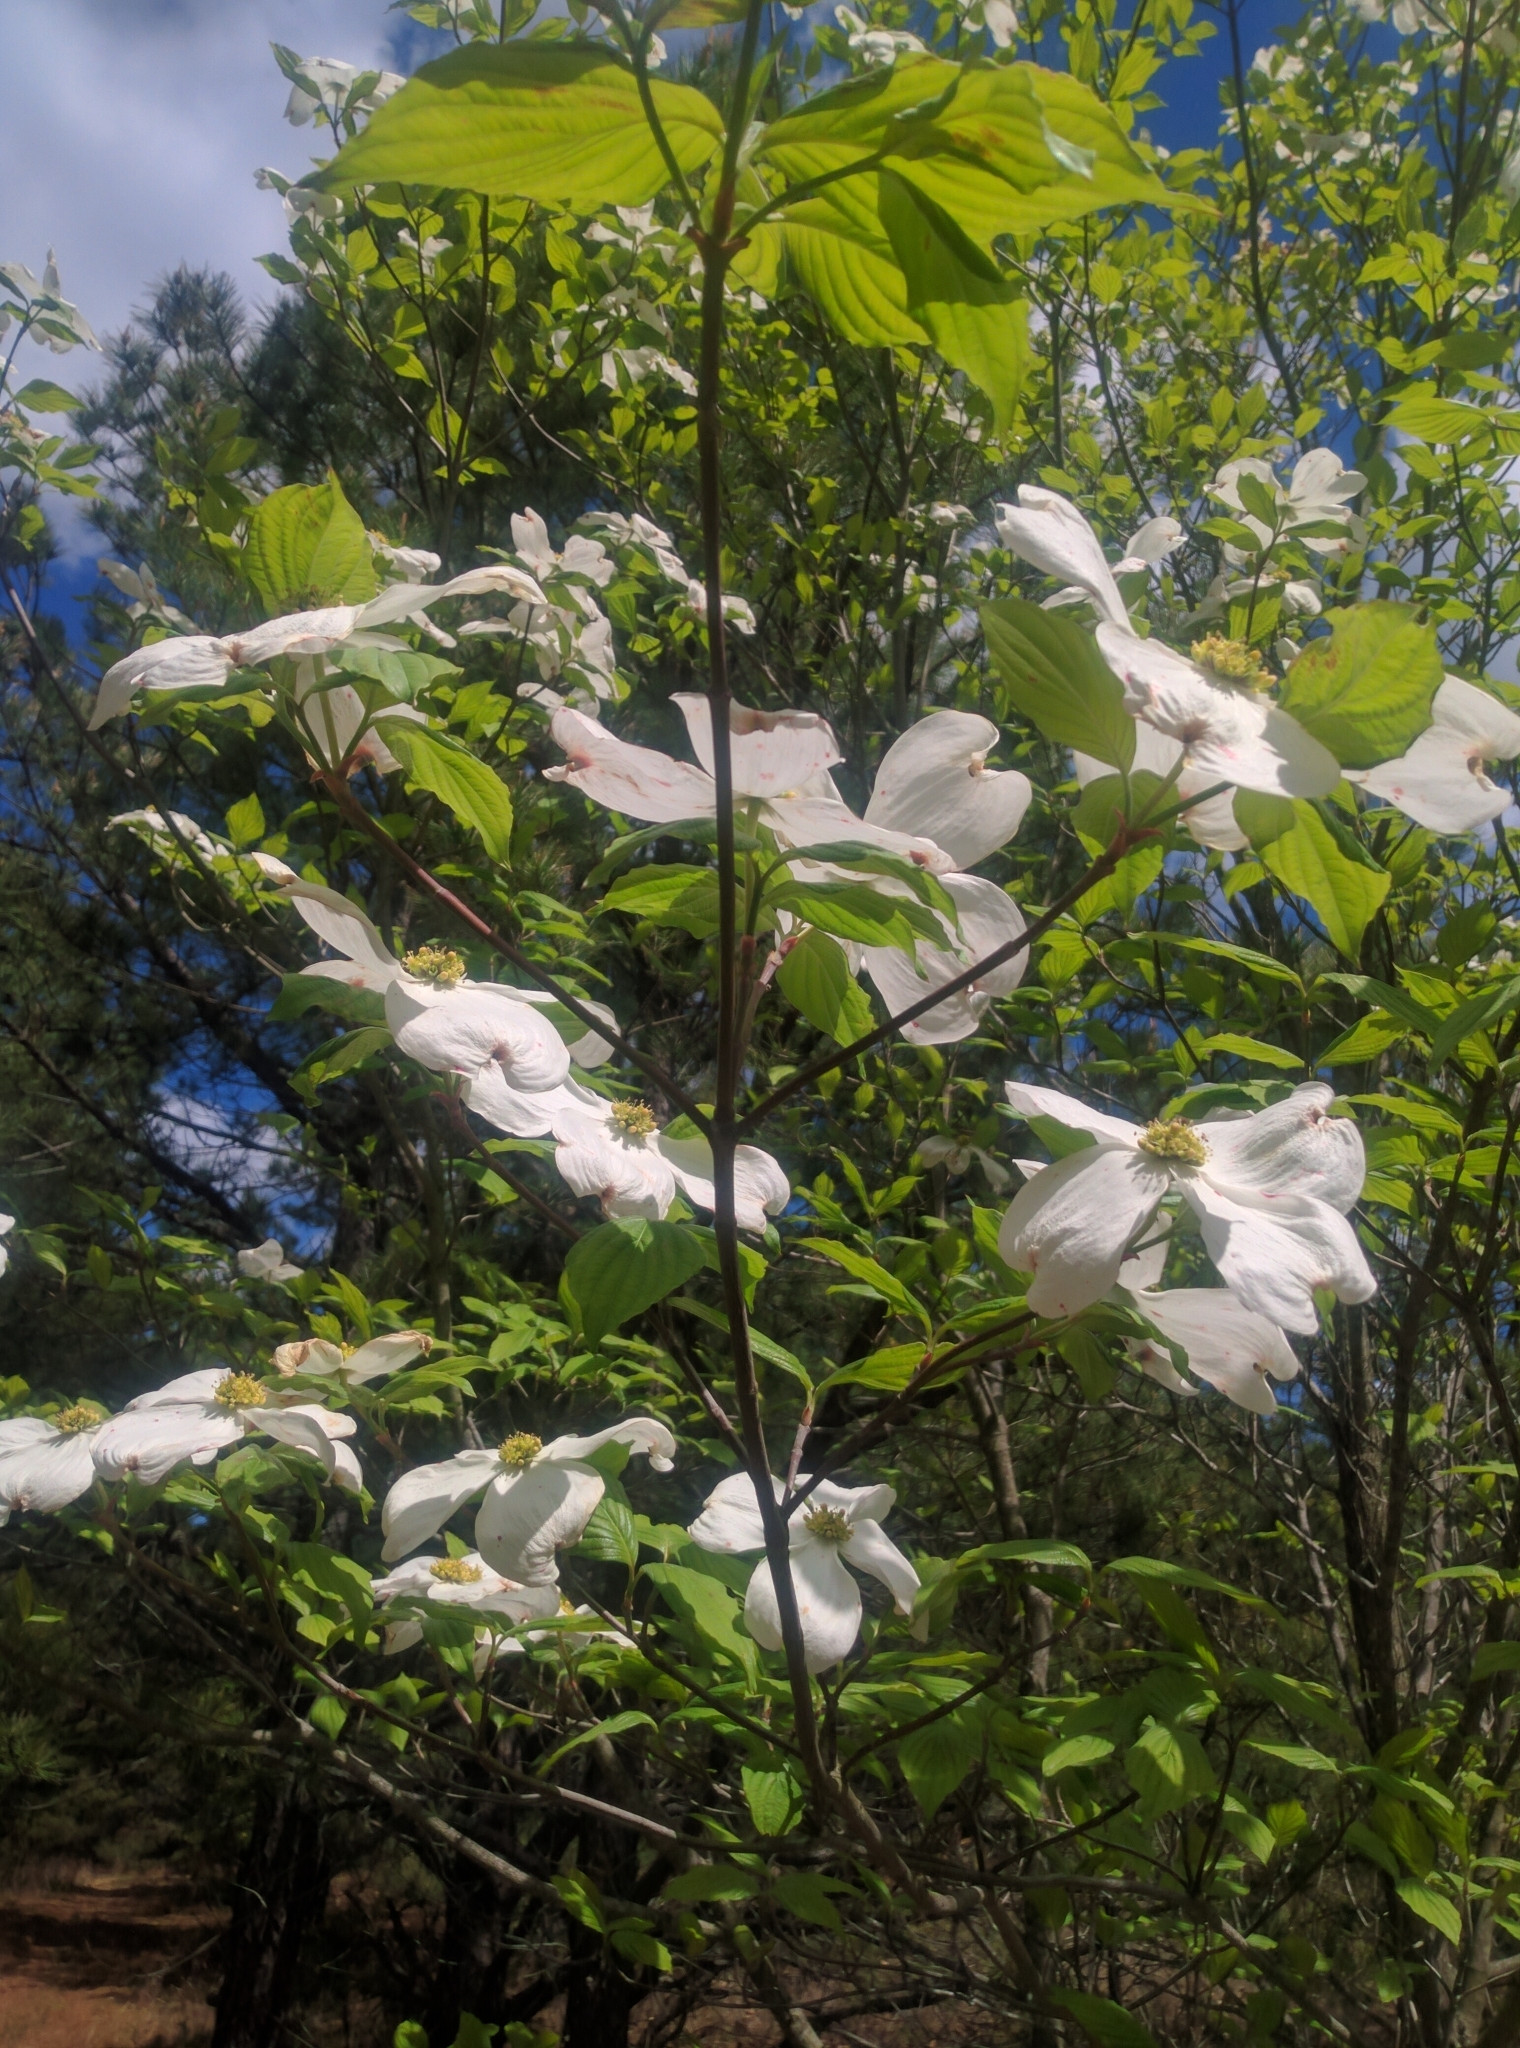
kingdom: Plantae
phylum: Tracheophyta
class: Magnoliopsida
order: Cornales
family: Cornaceae
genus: Cornus
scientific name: Cornus florida
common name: Flowering dogwood
